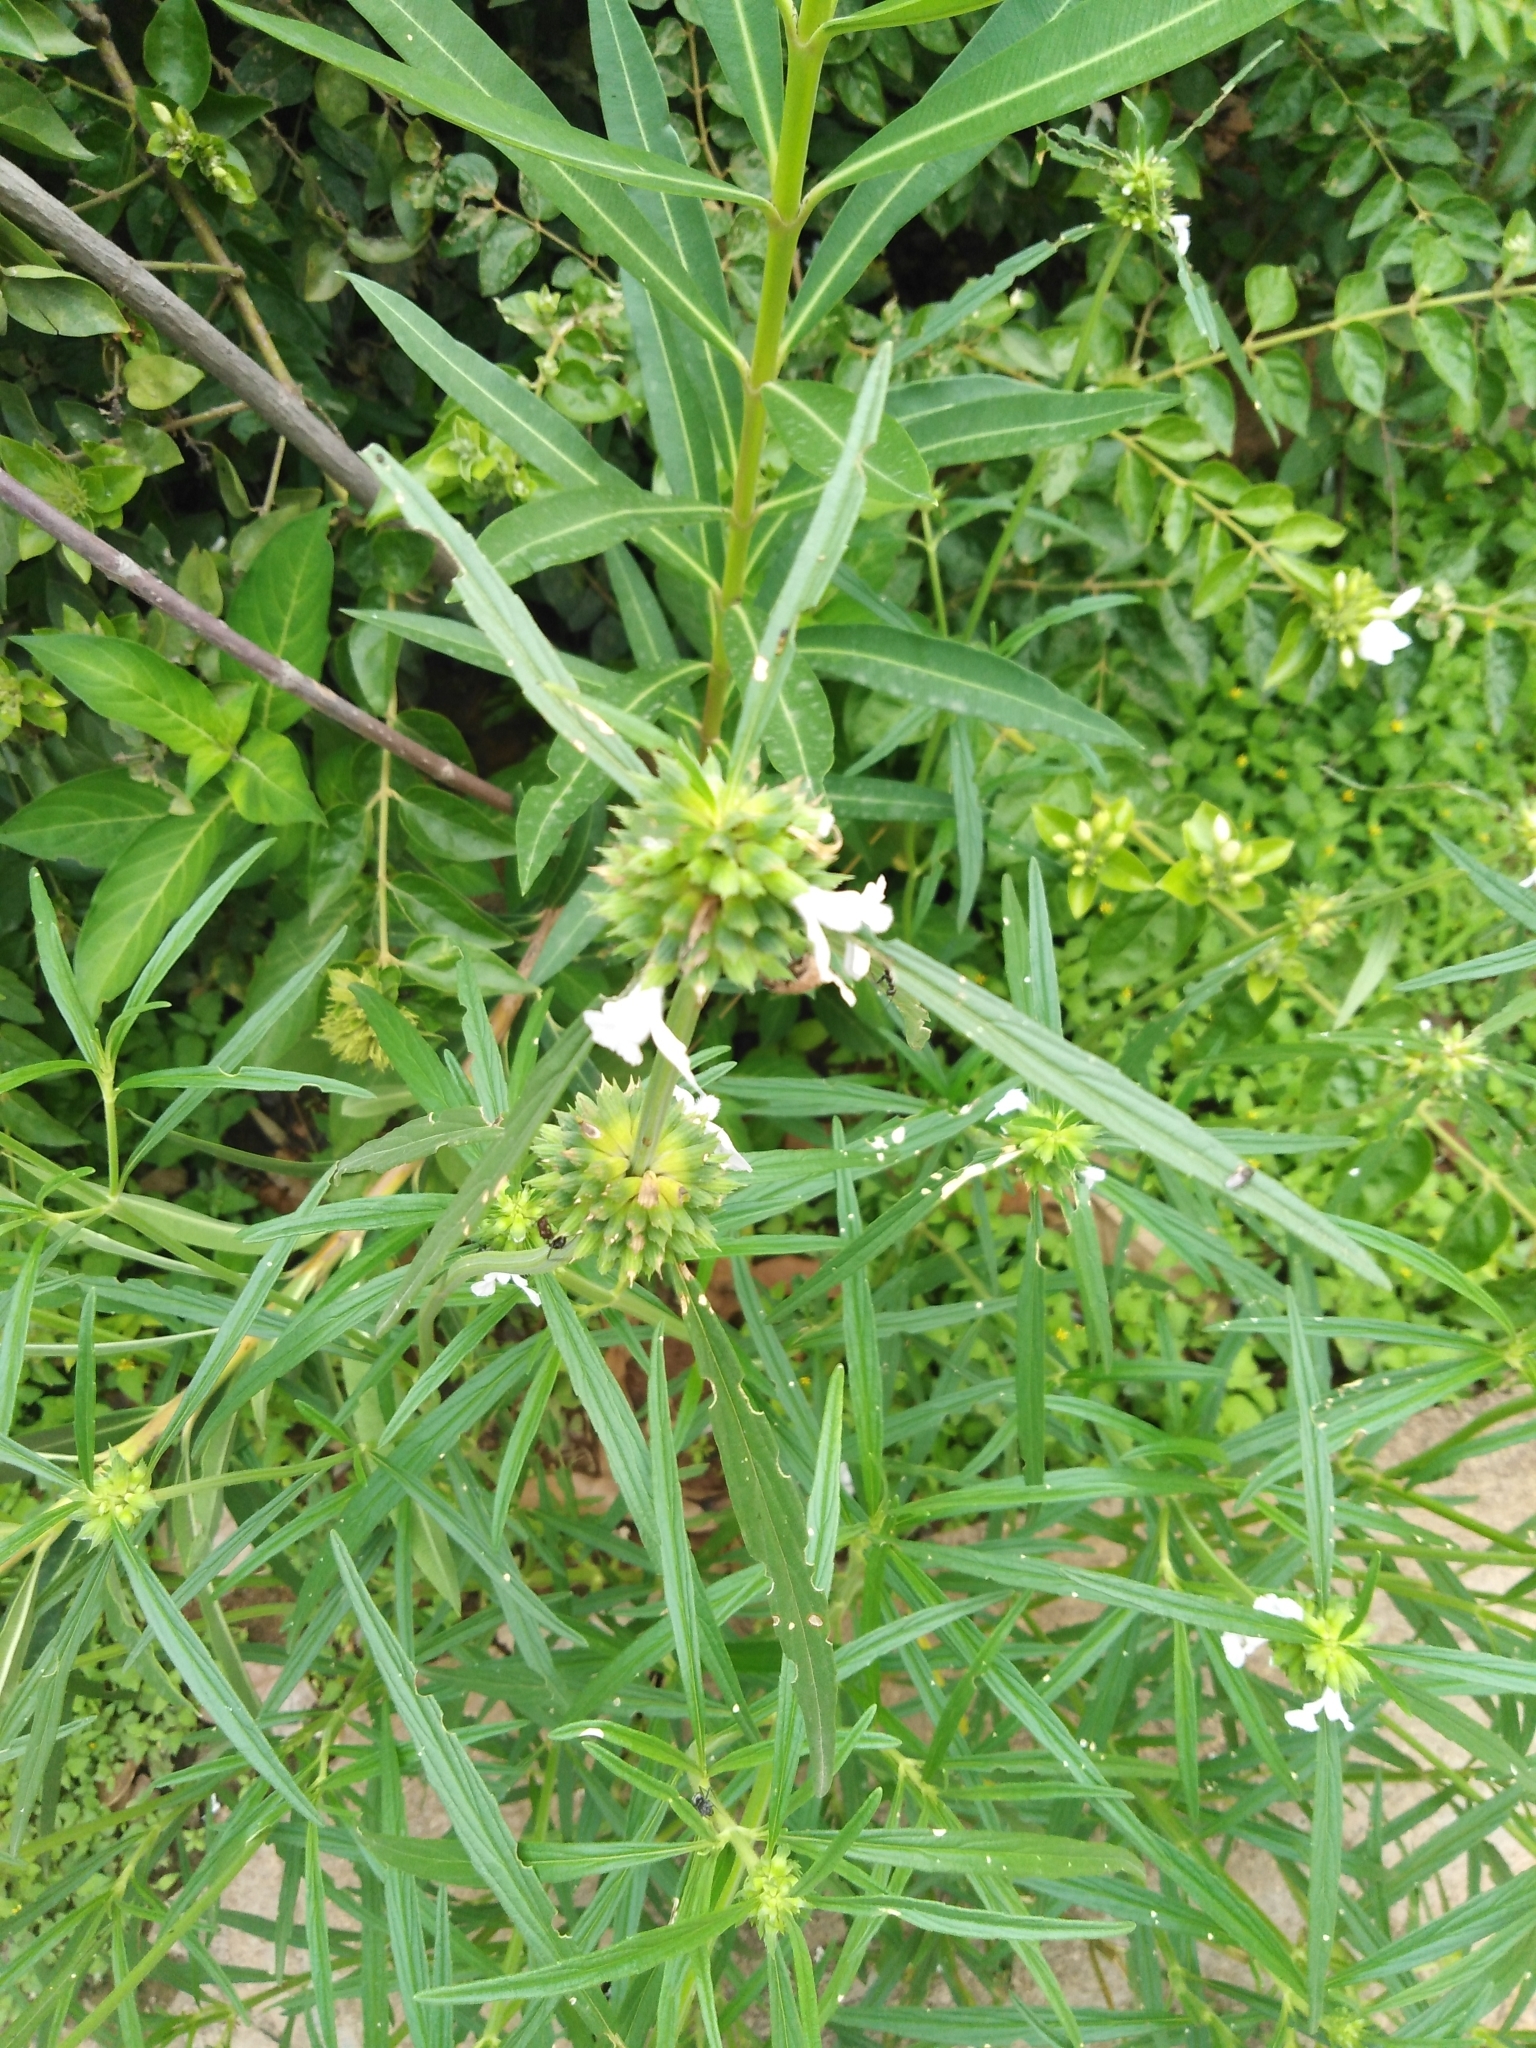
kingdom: Plantae
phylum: Tracheophyta
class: Magnoliopsida
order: Lamiales
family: Lamiaceae
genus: Leucas
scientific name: Leucas aspera
